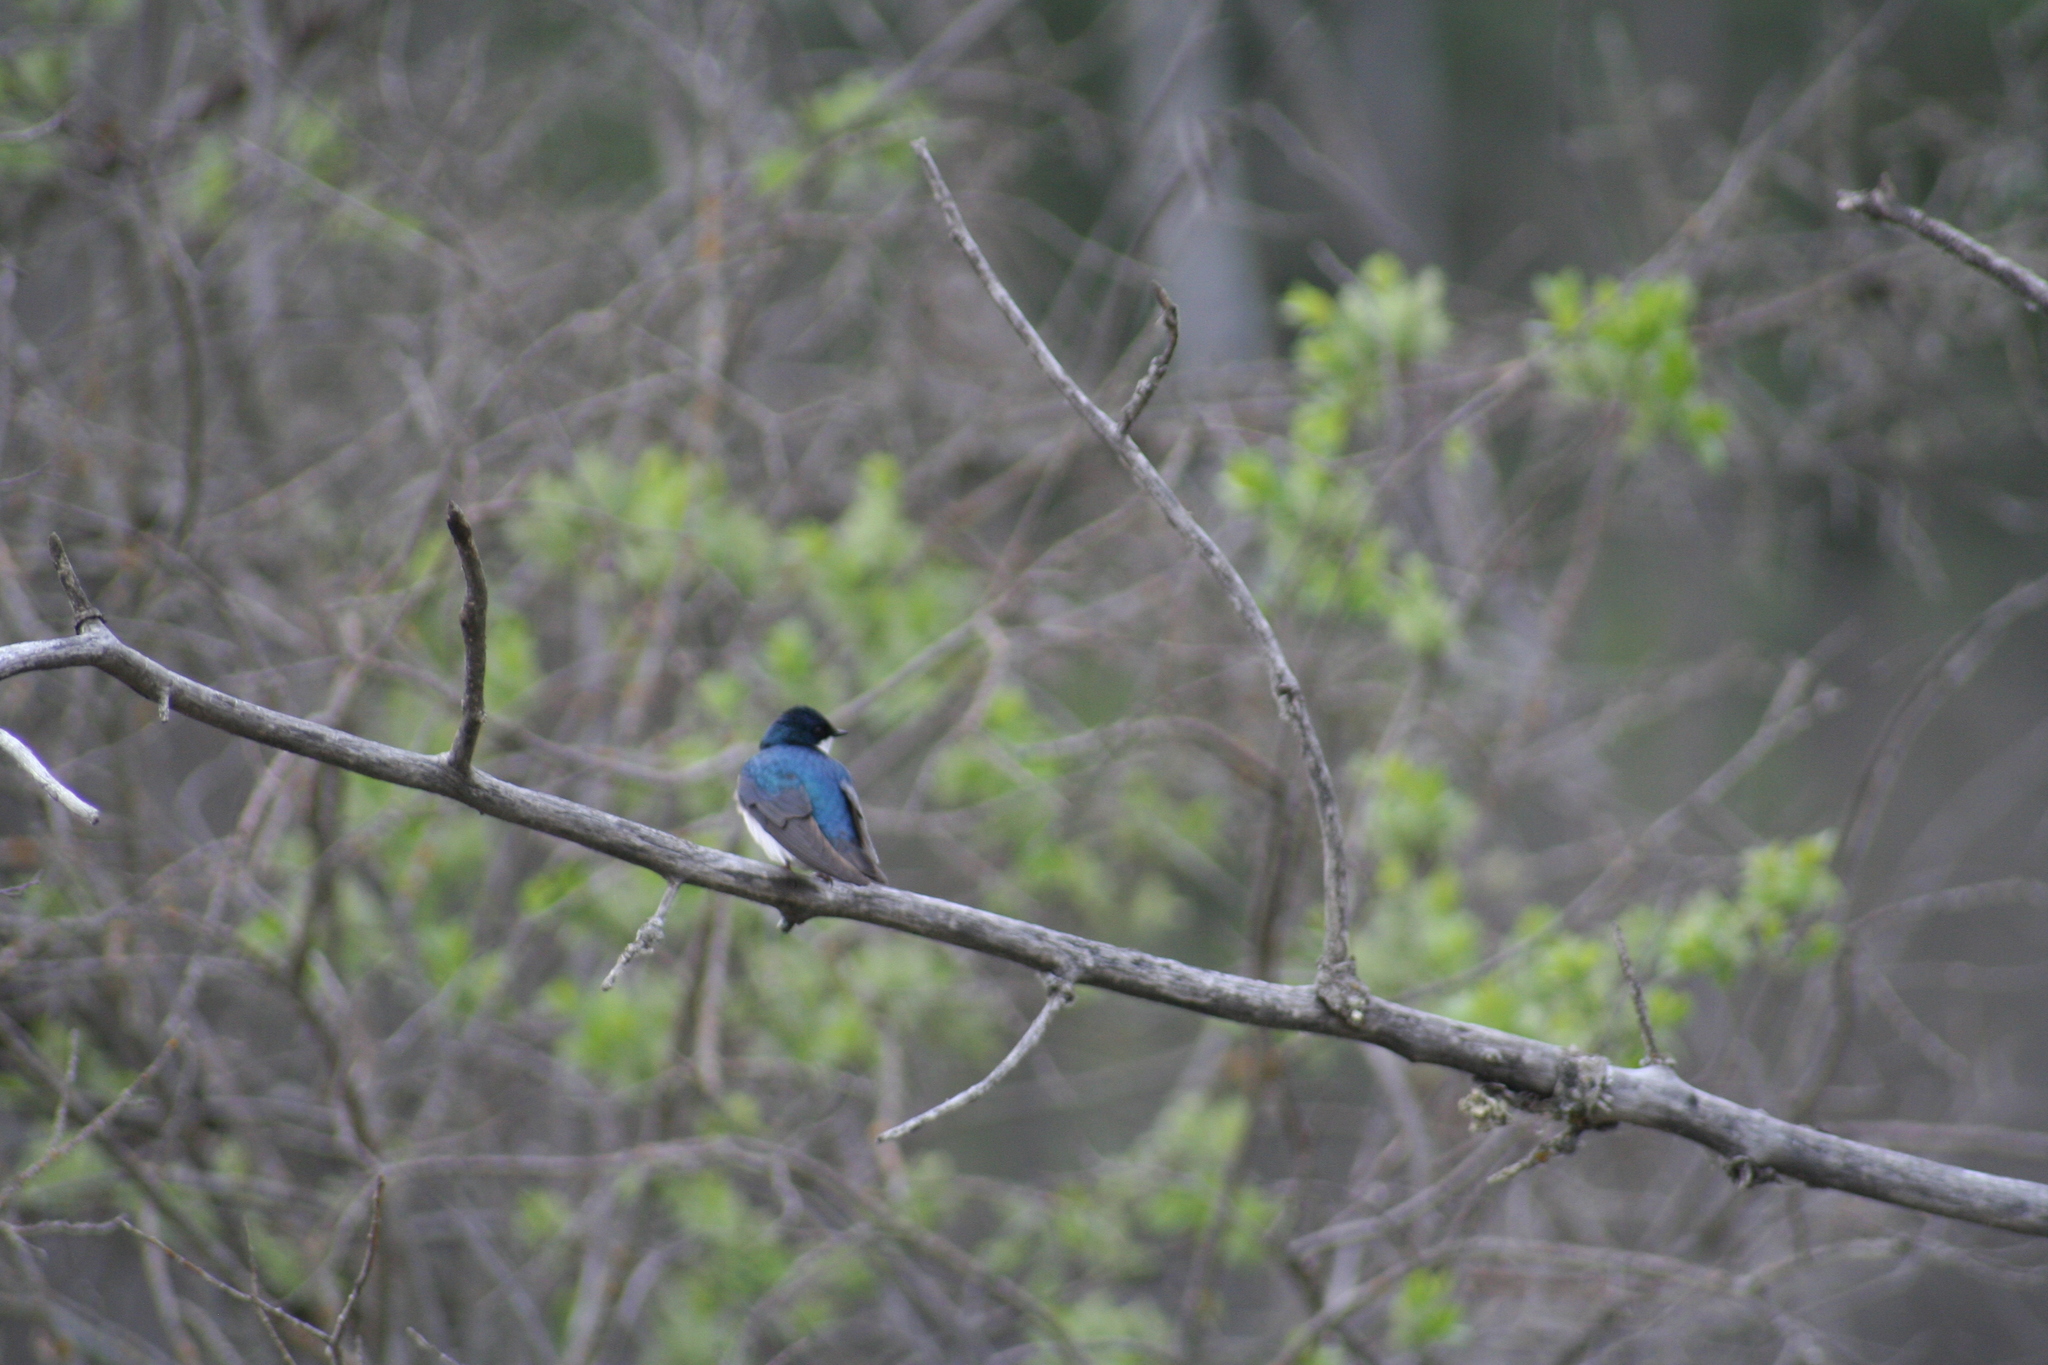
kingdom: Animalia
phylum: Chordata
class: Aves
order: Passeriformes
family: Hirundinidae
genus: Tachycineta
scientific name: Tachycineta bicolor
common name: Tree swallow
